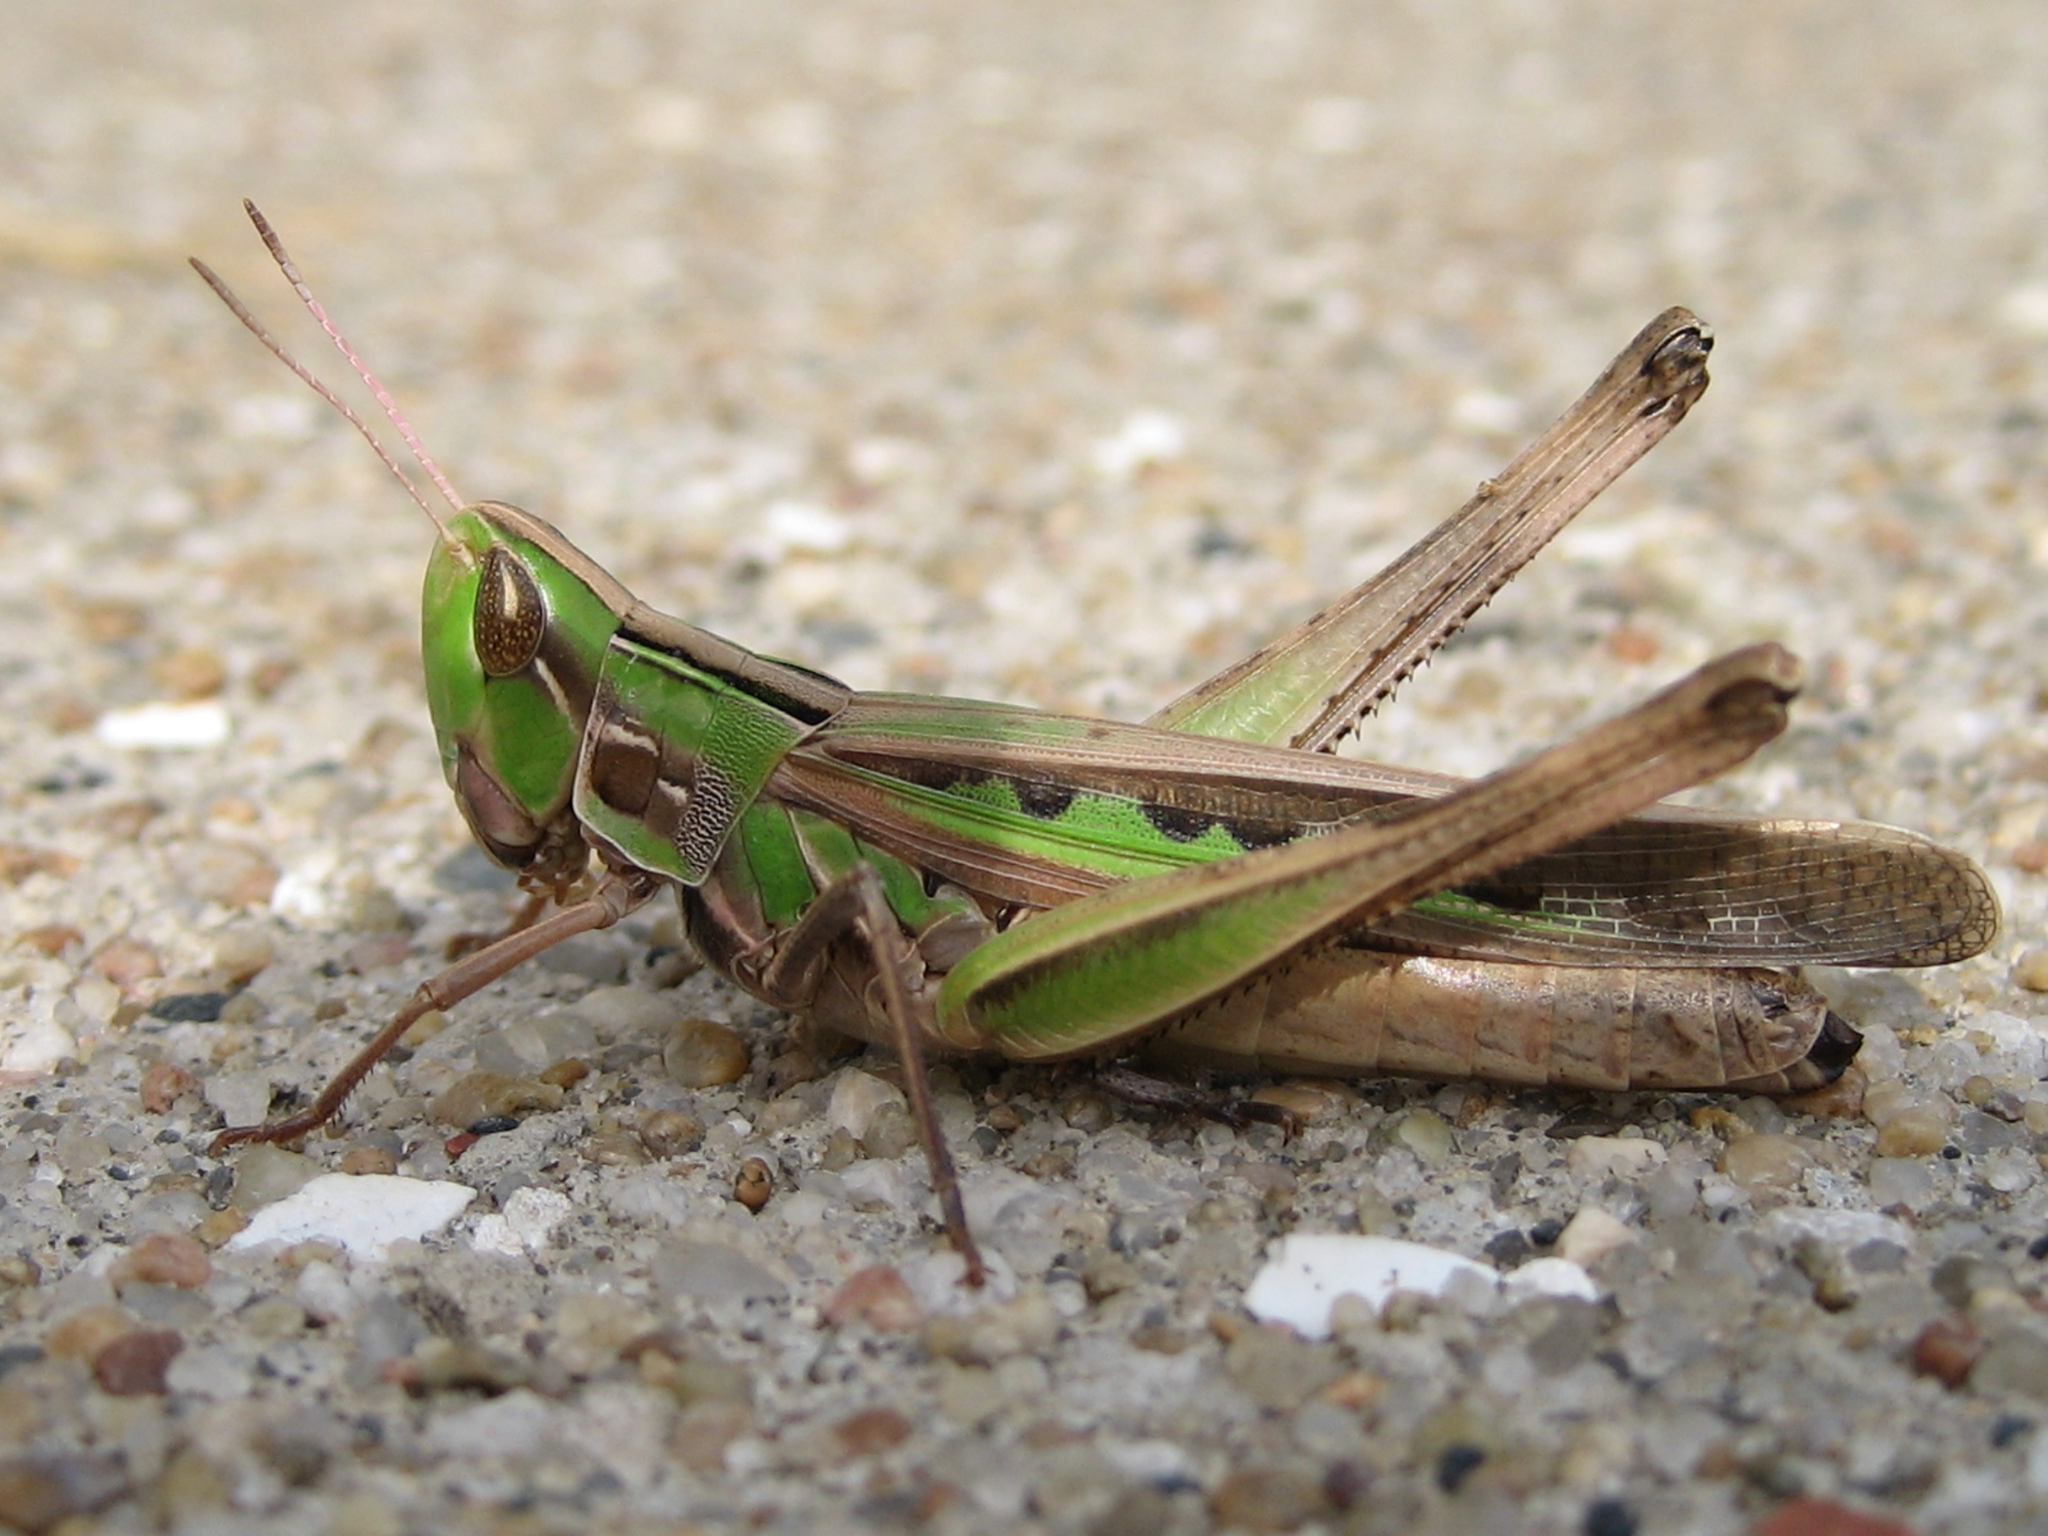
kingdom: Animalia
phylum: Arthropoda
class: Insecta
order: Orthoptera
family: Acrididae
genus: Syrbula
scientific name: Syrbula admirabilis
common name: Handsome grasshopper
